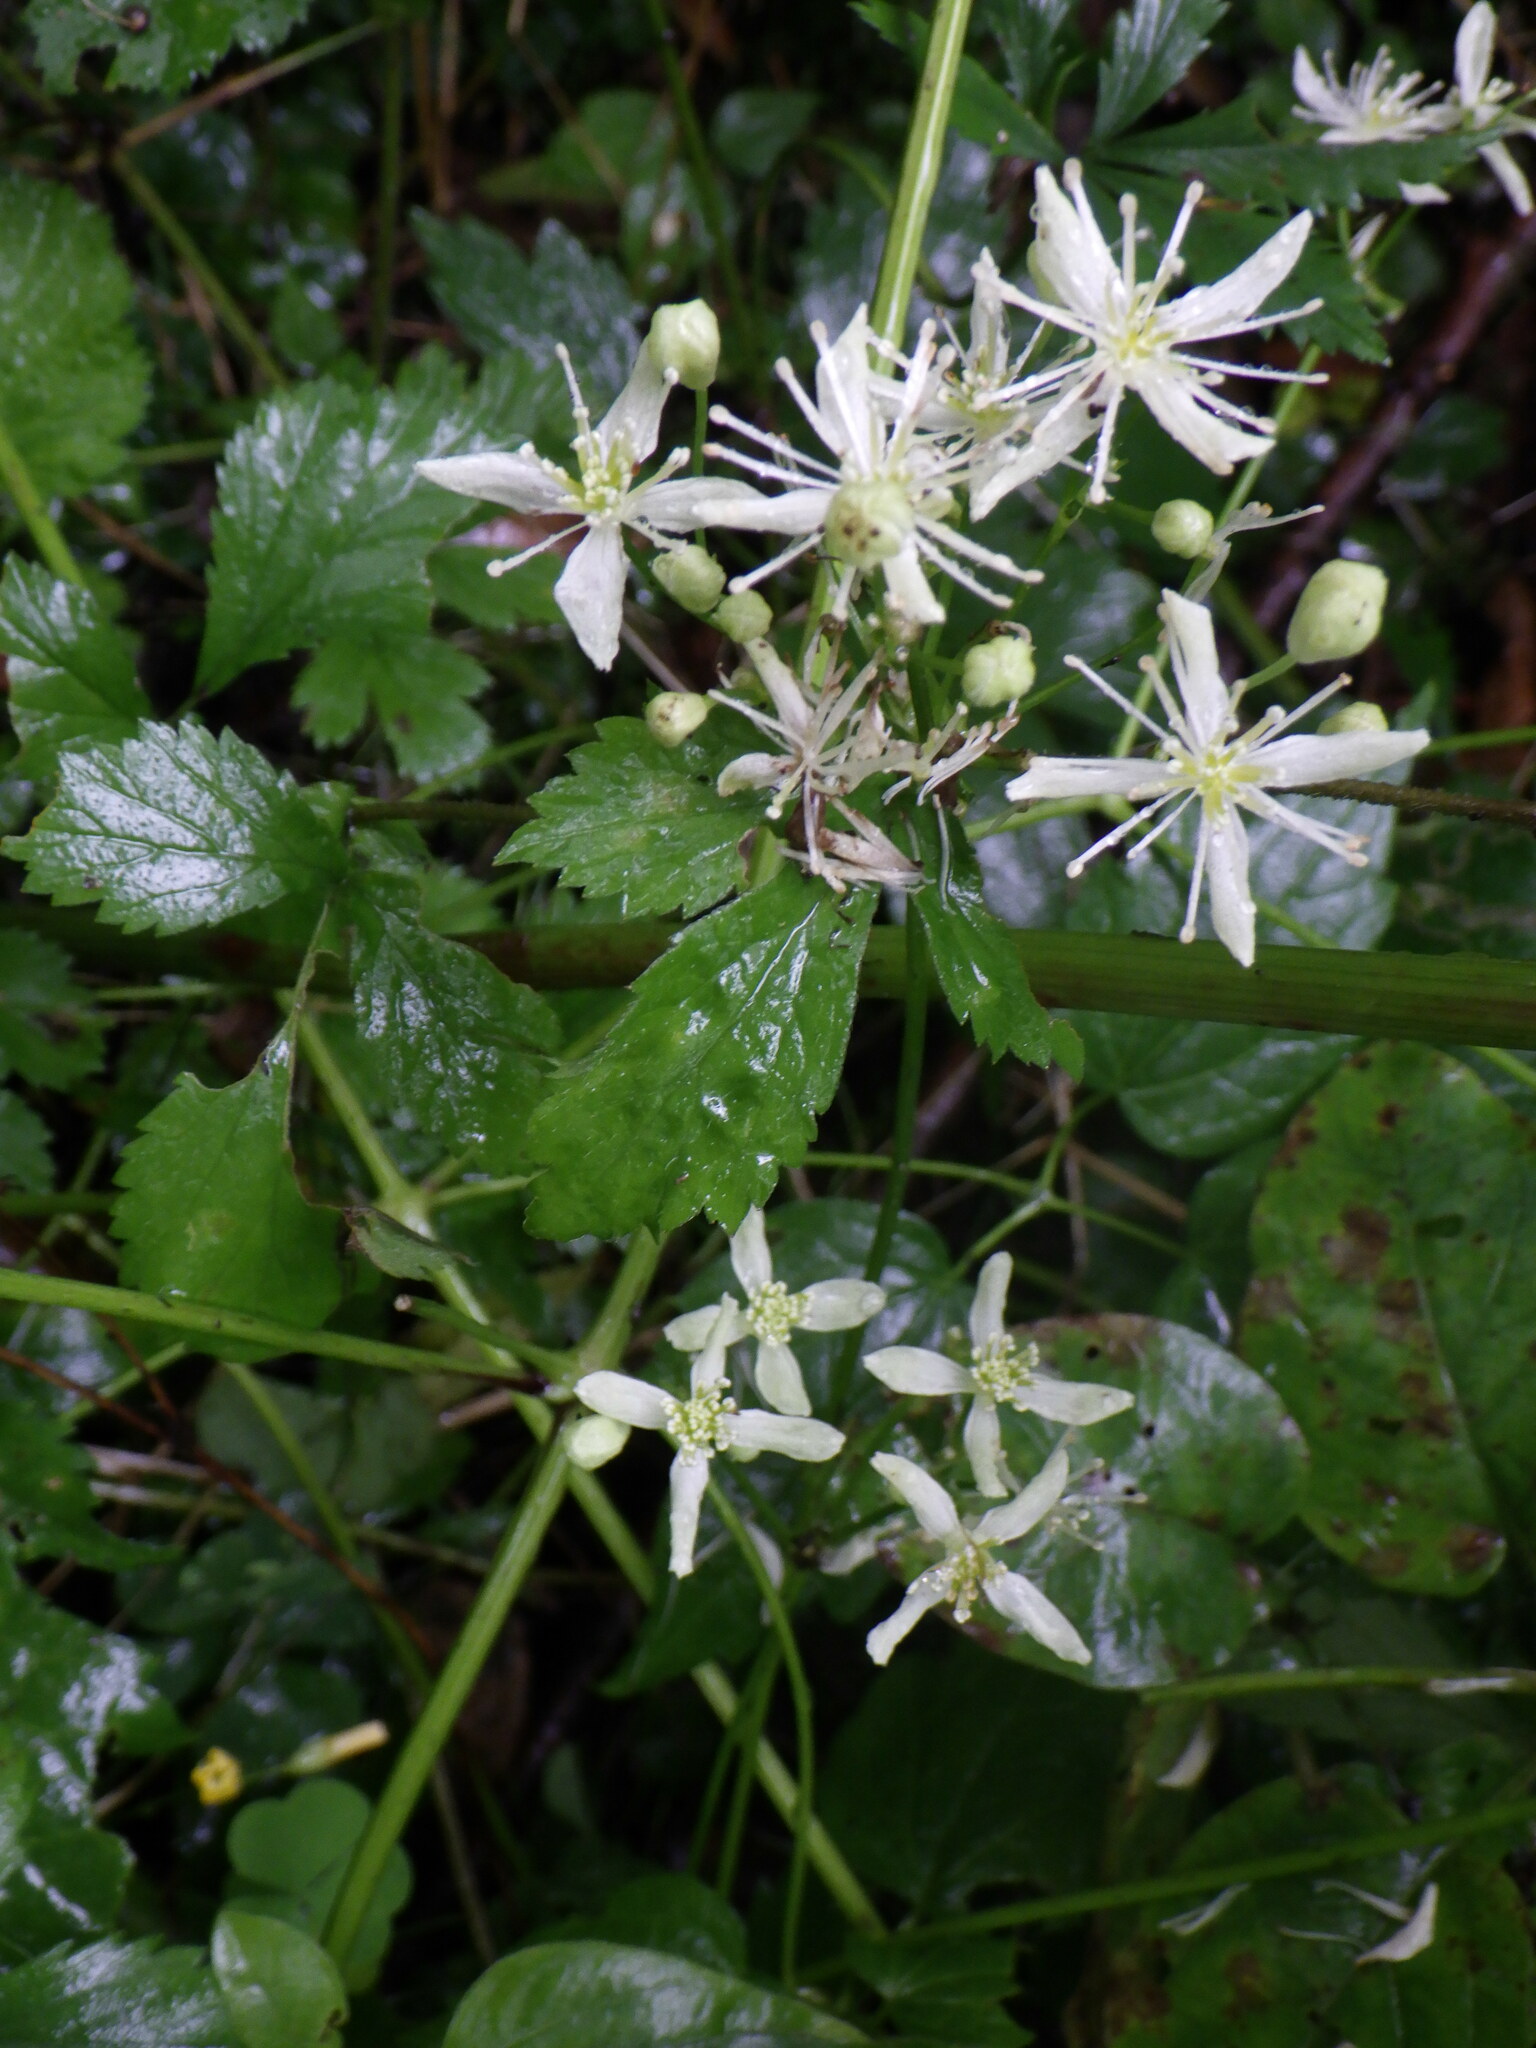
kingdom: Plantae
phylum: Tracheophyta
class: Magnoliopsida
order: Ranunculales
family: Ranunculaceae
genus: Clematis
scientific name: Clematis virginiana
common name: Virgin's-bower
